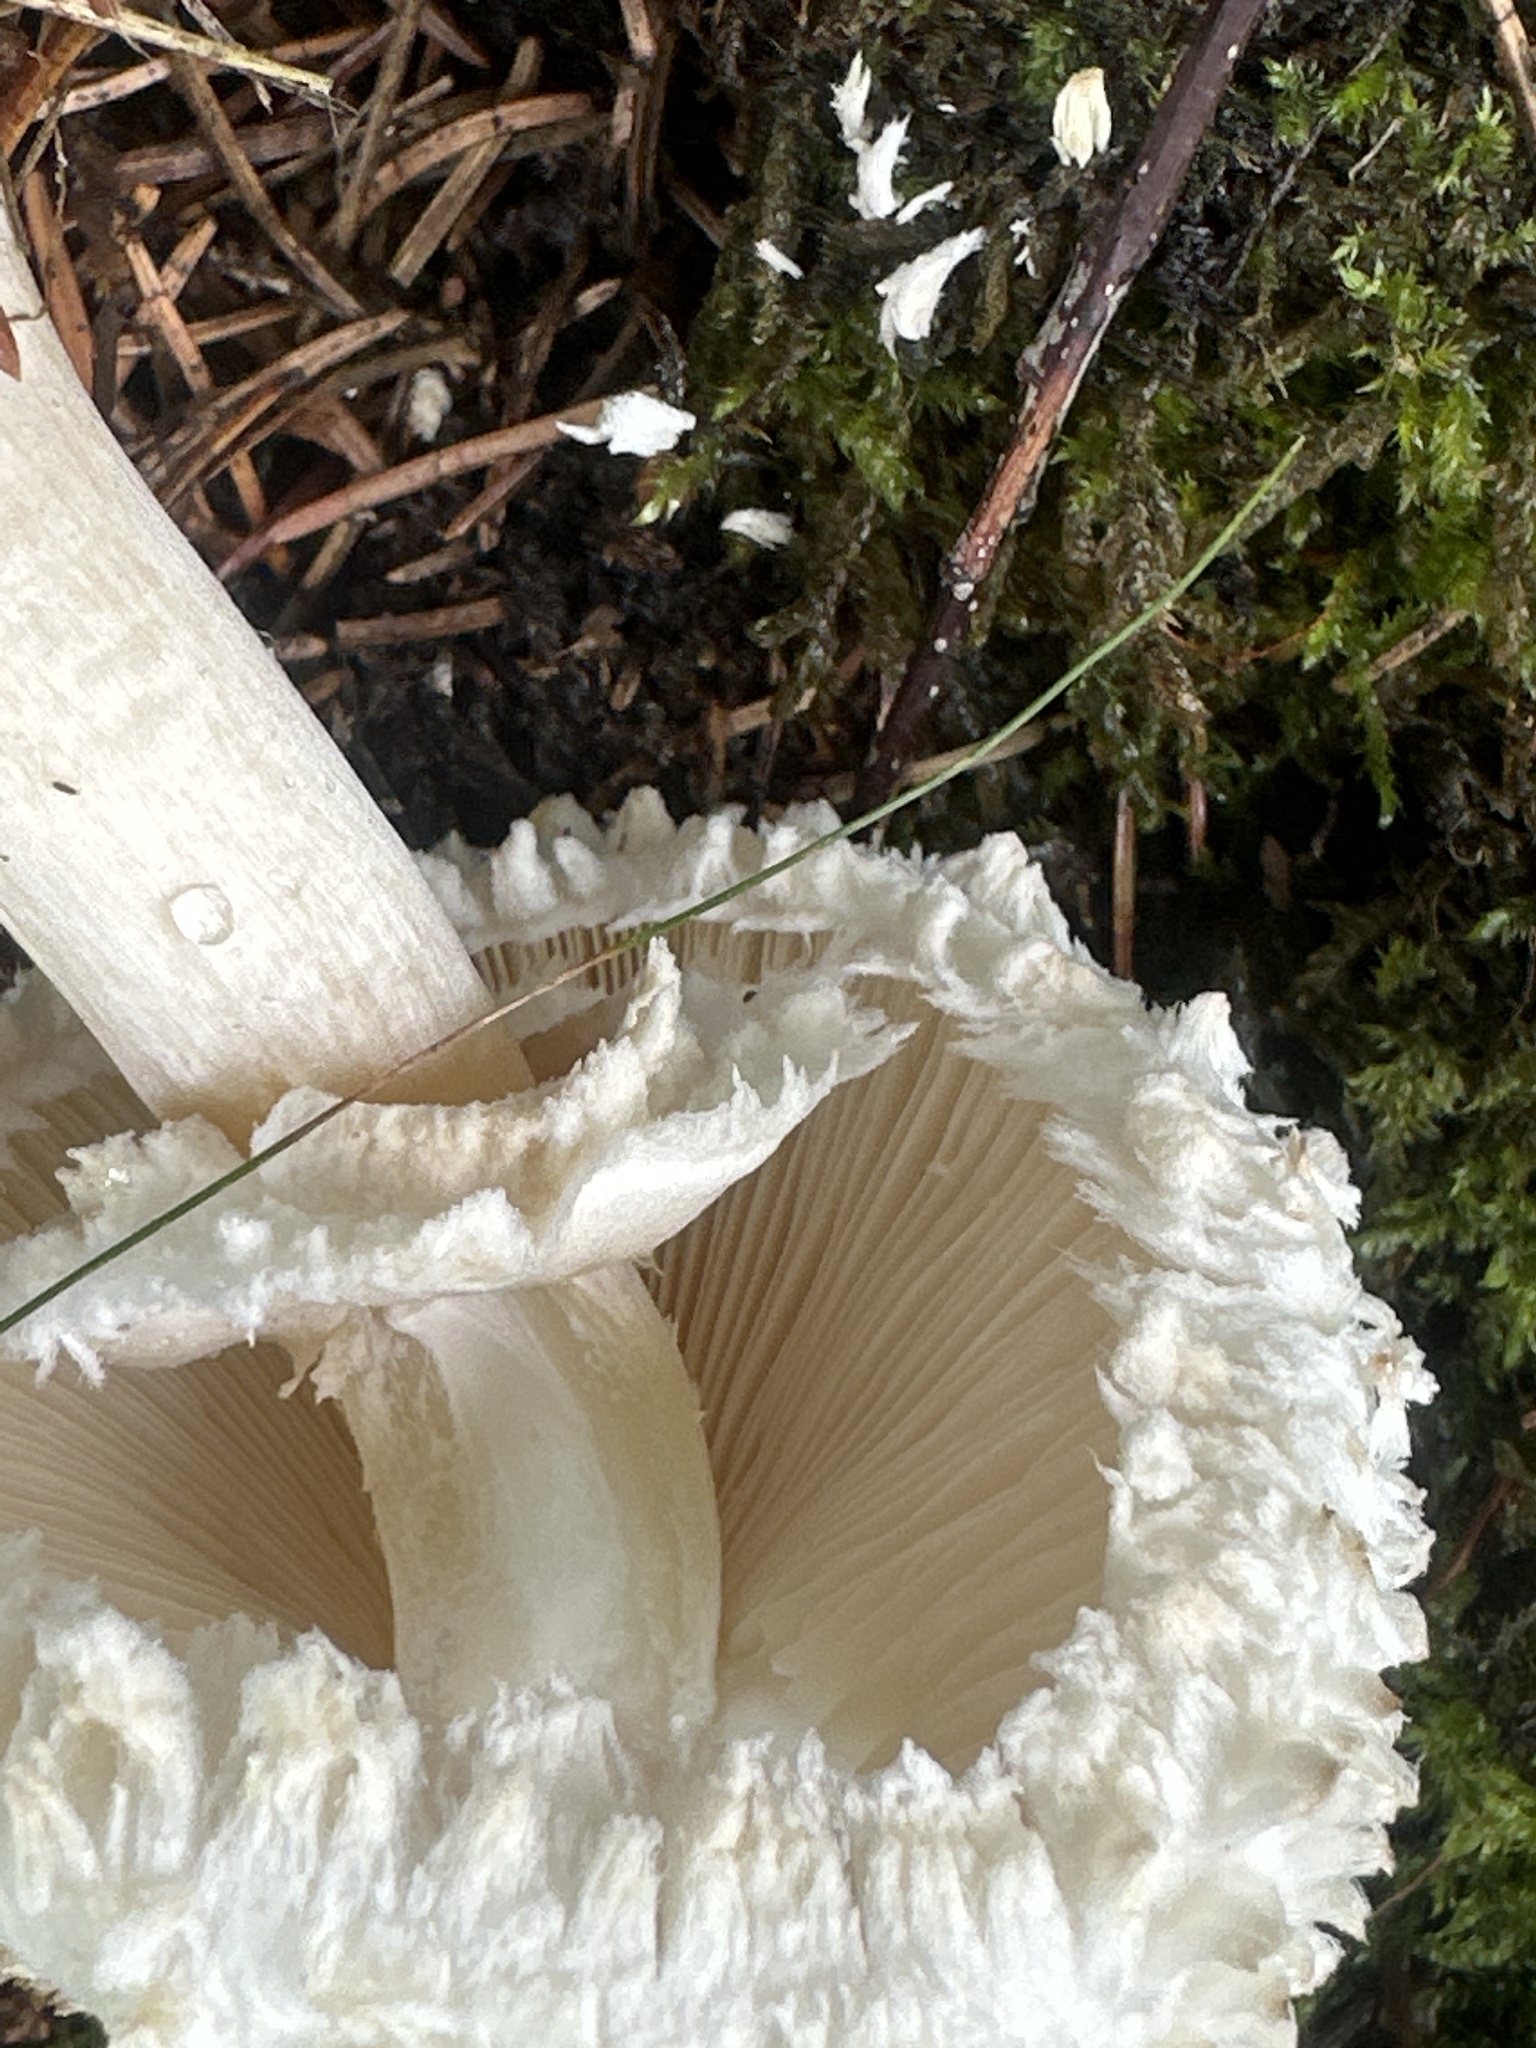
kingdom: Fungi
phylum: Basidiomycota
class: Agaricomycetes
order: Agaricales
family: Agaricaceae
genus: Leucoagaricus
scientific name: Leucoagaricus nympharum
